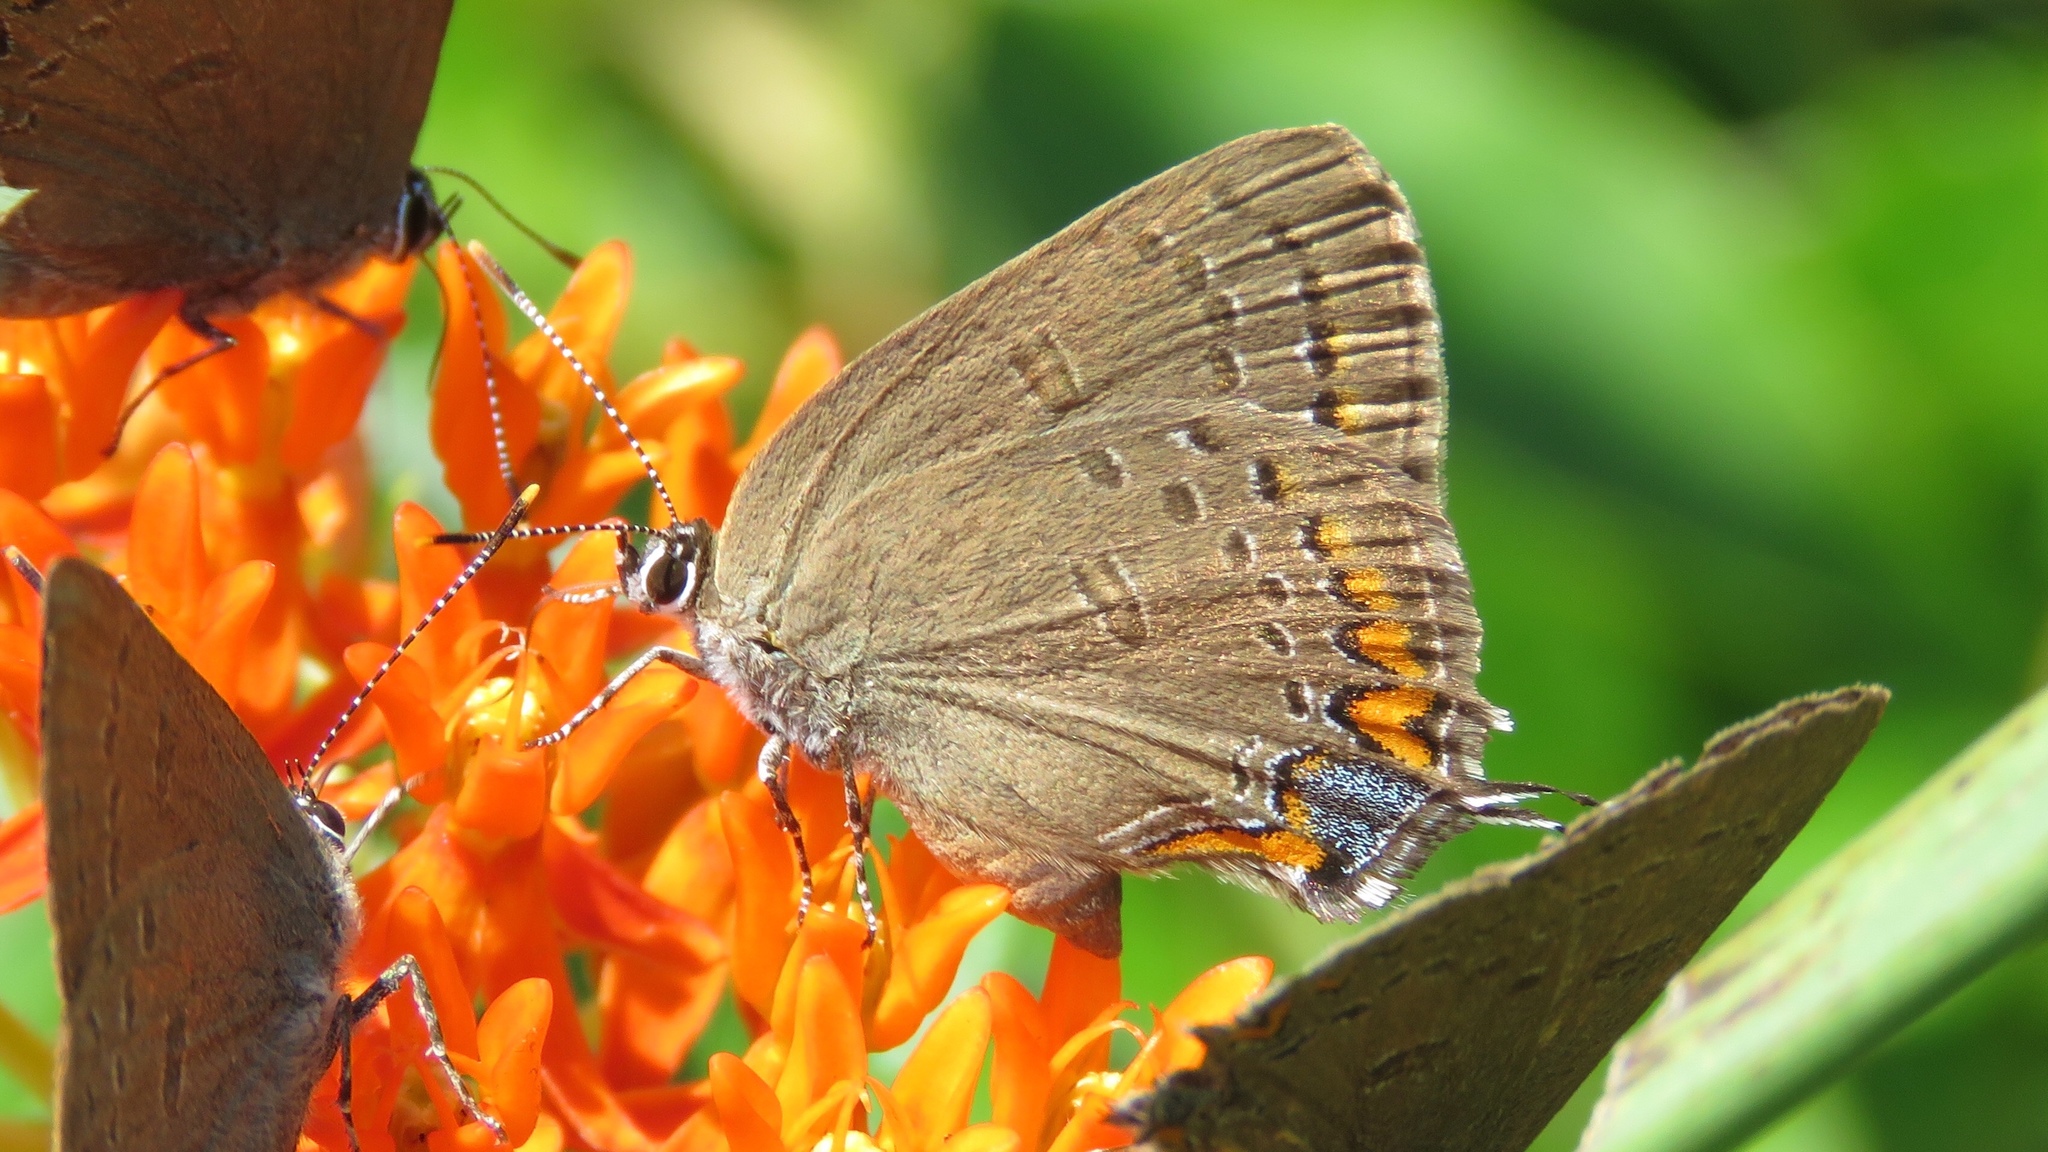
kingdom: Animalia
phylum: Arthropoda
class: Insecta
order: Lepidoptera
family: Lycaenidae
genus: Satyrium
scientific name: Satyrium edwardsii
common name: Edwards' hairstreak
